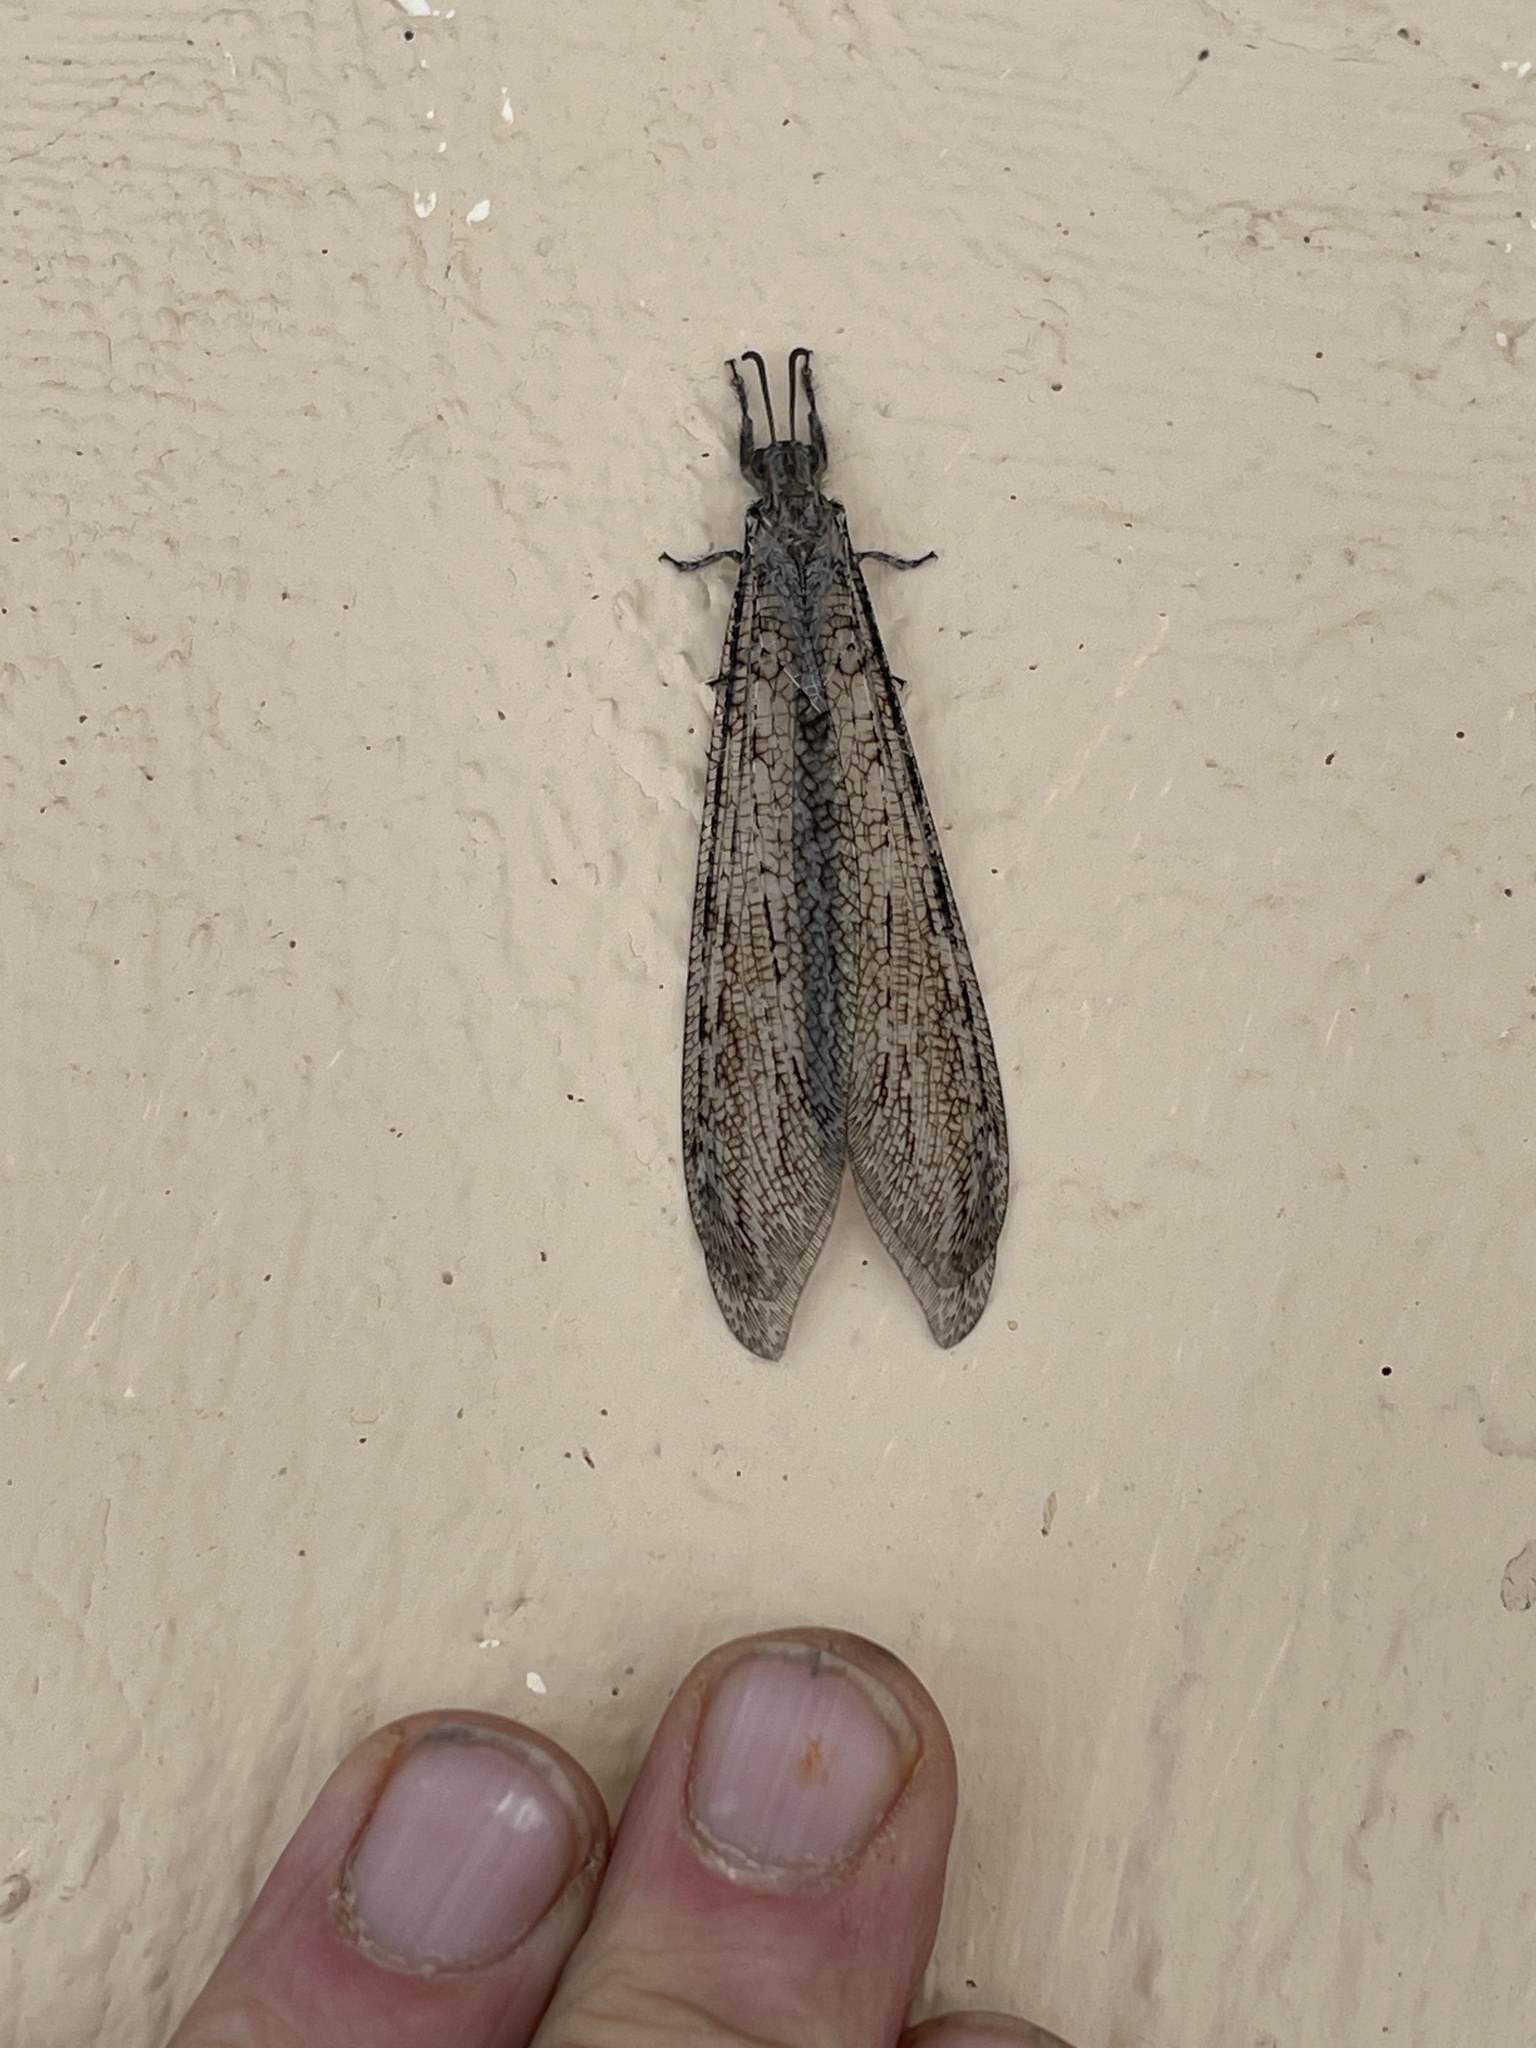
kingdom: Animalia
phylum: Arthropoda
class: Insecta
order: Neuroptera
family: Myrmeleontidae
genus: Vella
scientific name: Vella fallax
